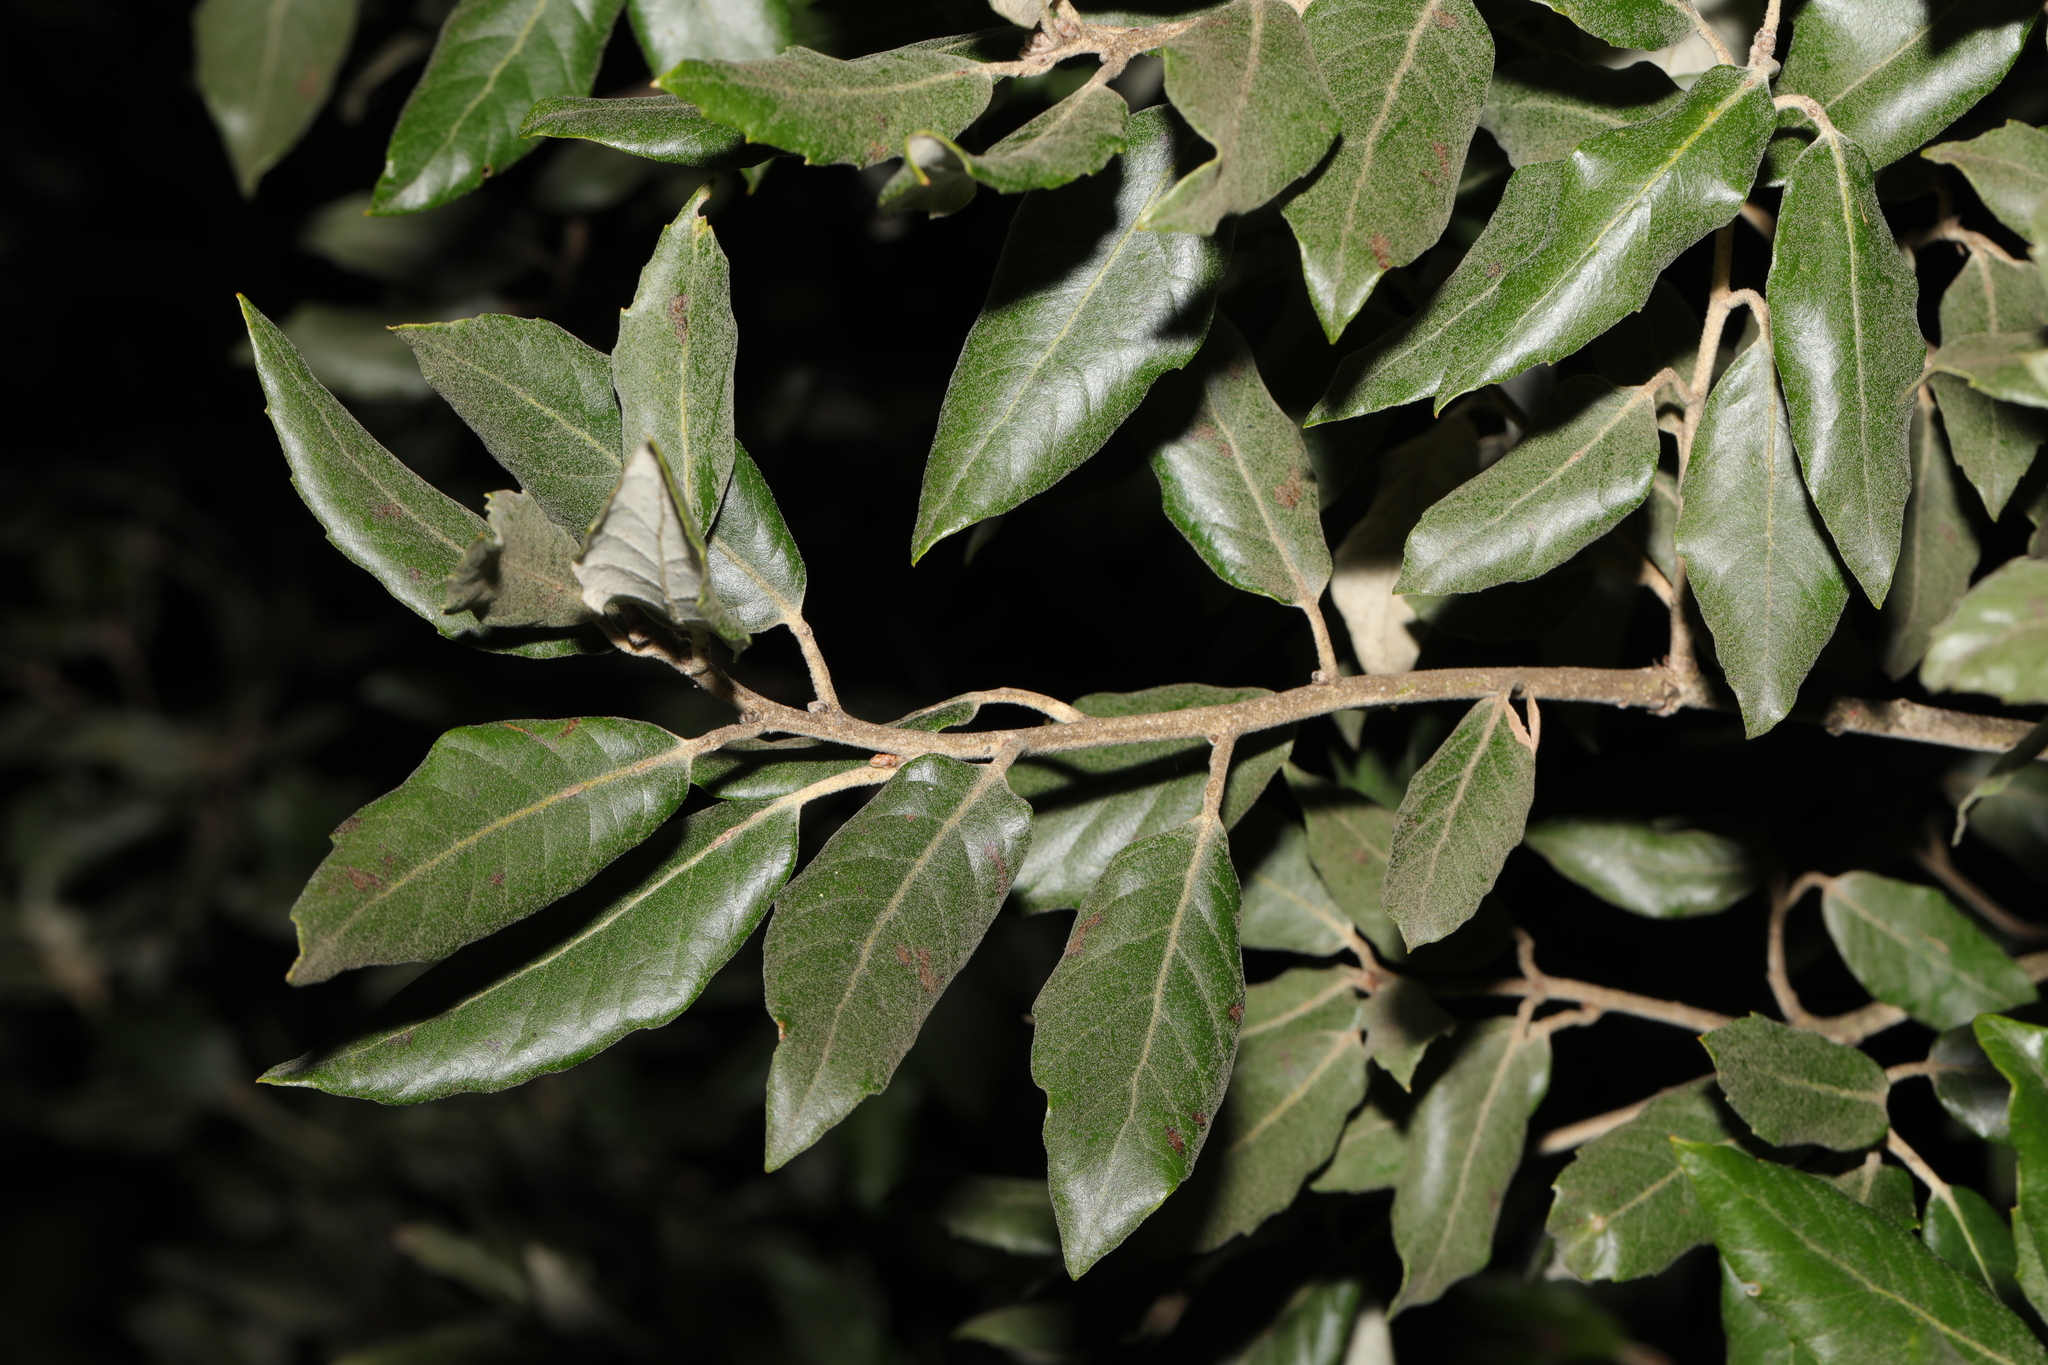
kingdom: Plantae
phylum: Tracheophyta
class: Magnoliopsida
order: Fagales
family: Fagaceae
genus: Quercus
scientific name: Quercus ilex
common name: Evergreen oak
